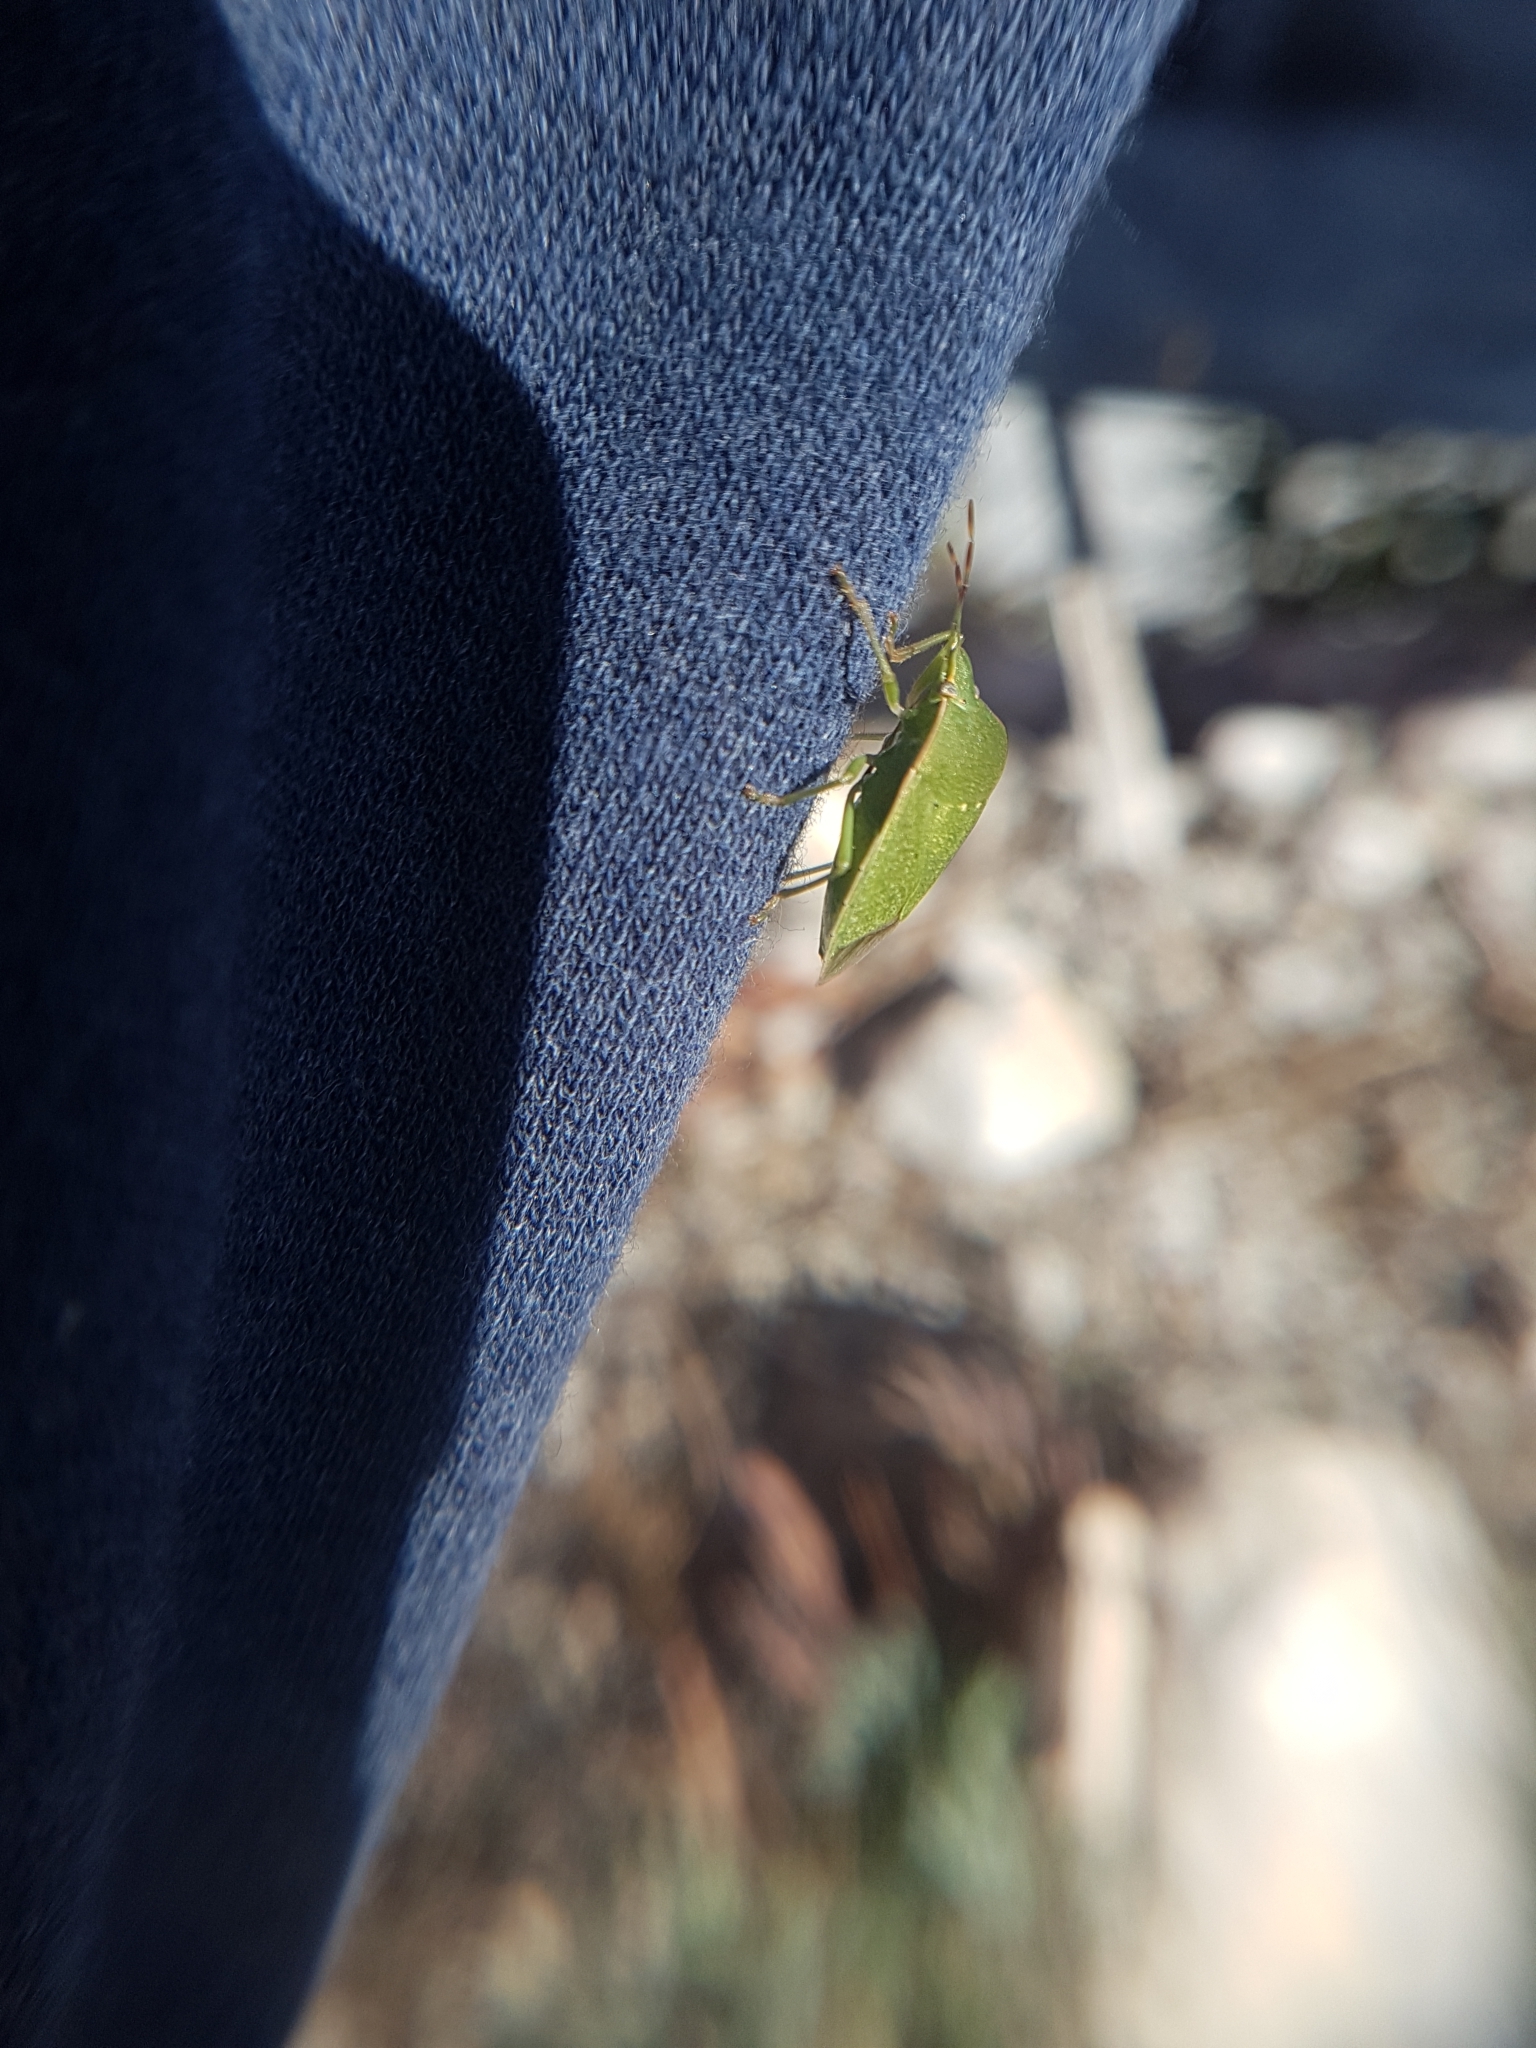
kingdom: Animalia
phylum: Arthropoda
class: Insecta
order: Hemiptera
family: Pentatomidae
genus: Nezara
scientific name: Nezara viridula
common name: Southern green stink bug
